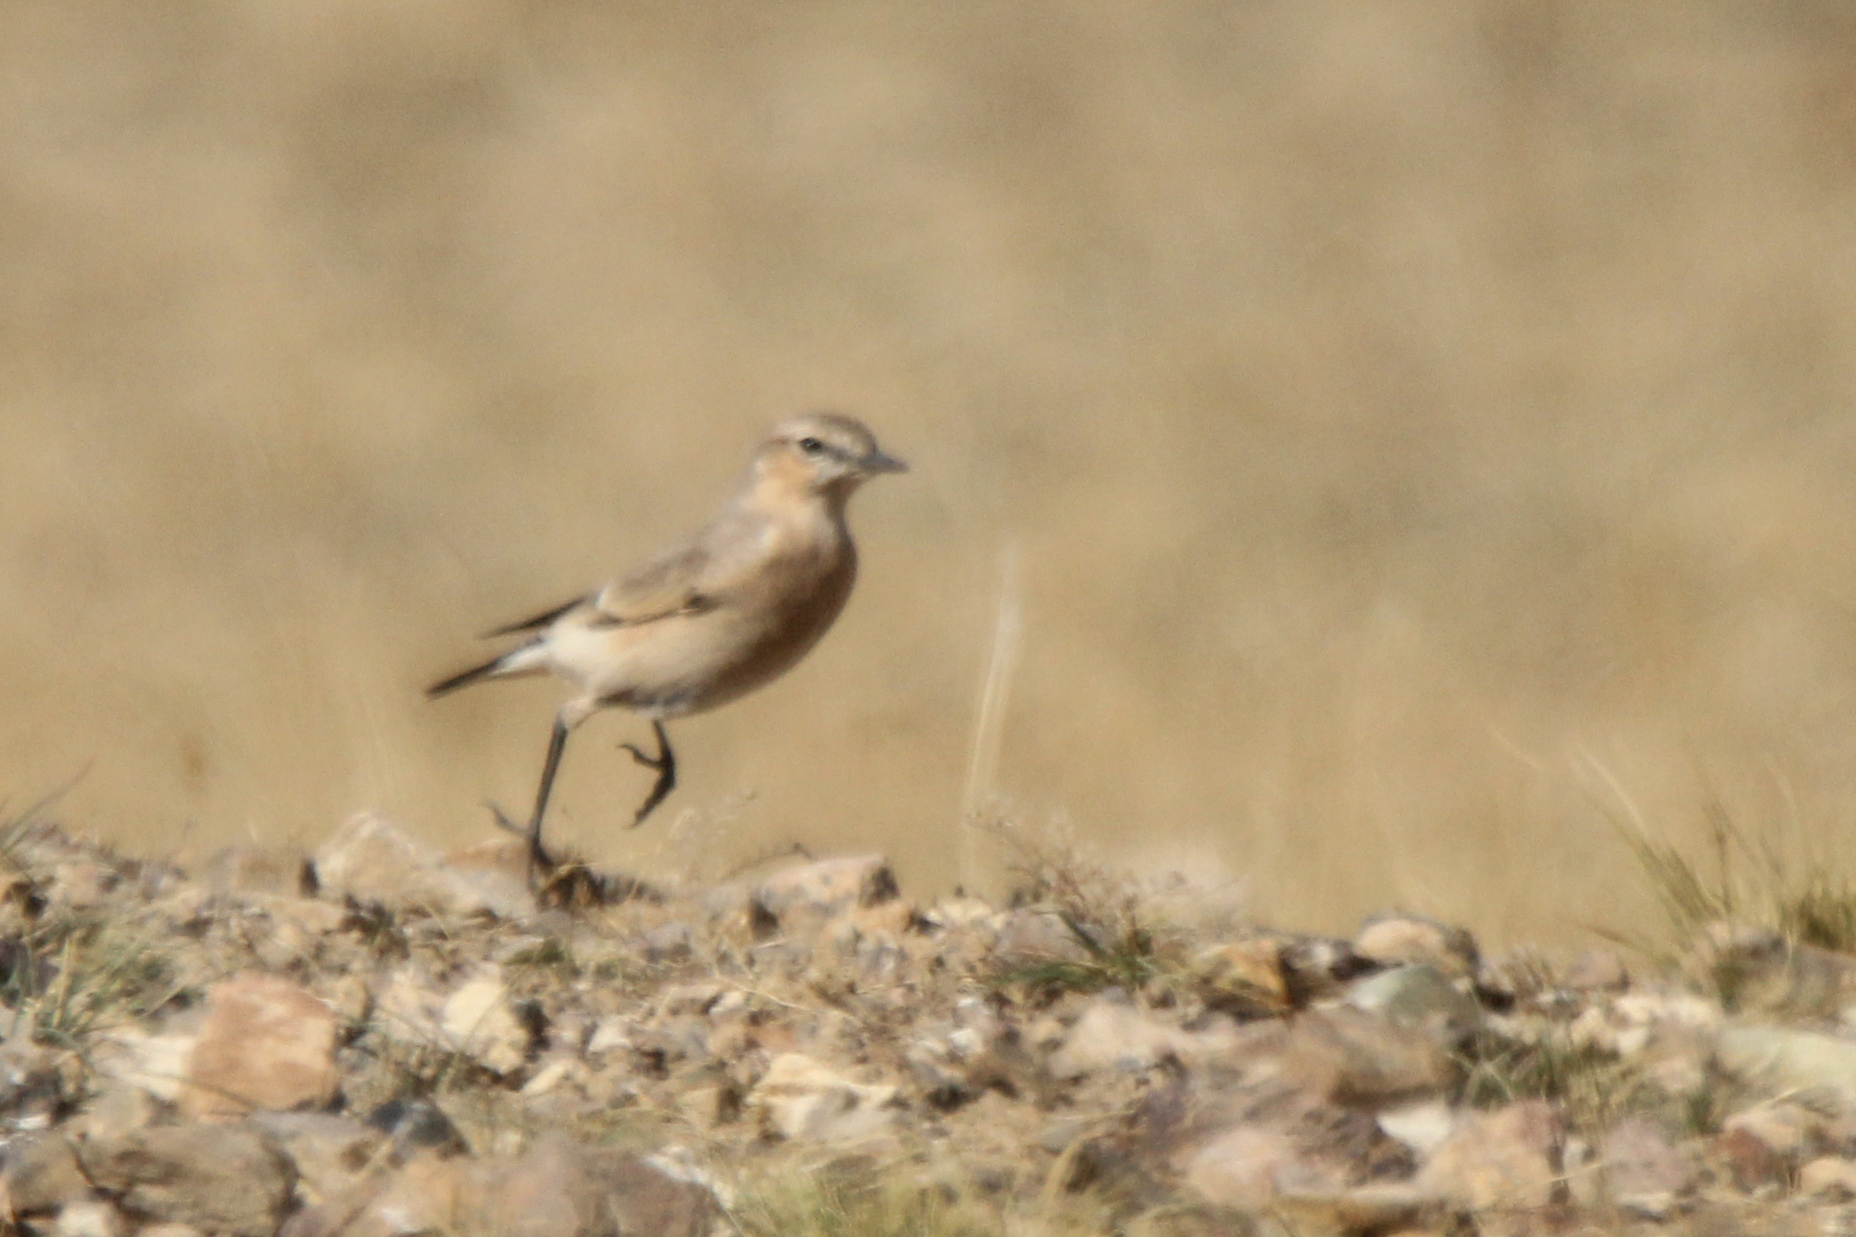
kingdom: Animalia
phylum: Chordata
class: Aves
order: Passeriformes
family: Muscicapidae
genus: Oenanthe
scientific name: Oenanthe isabellina
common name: Isabelline wheatear
